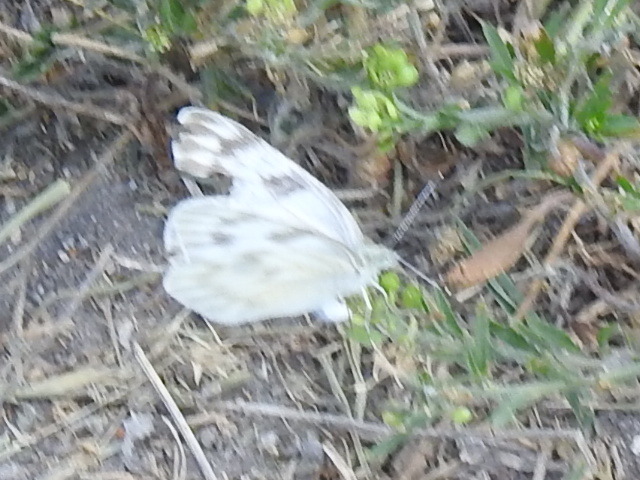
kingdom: Animalia
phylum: Arthropoda
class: Insecta
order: Lepidoptera
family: Pieridae
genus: Pontia
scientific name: Pontia protodice
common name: Checkered white
